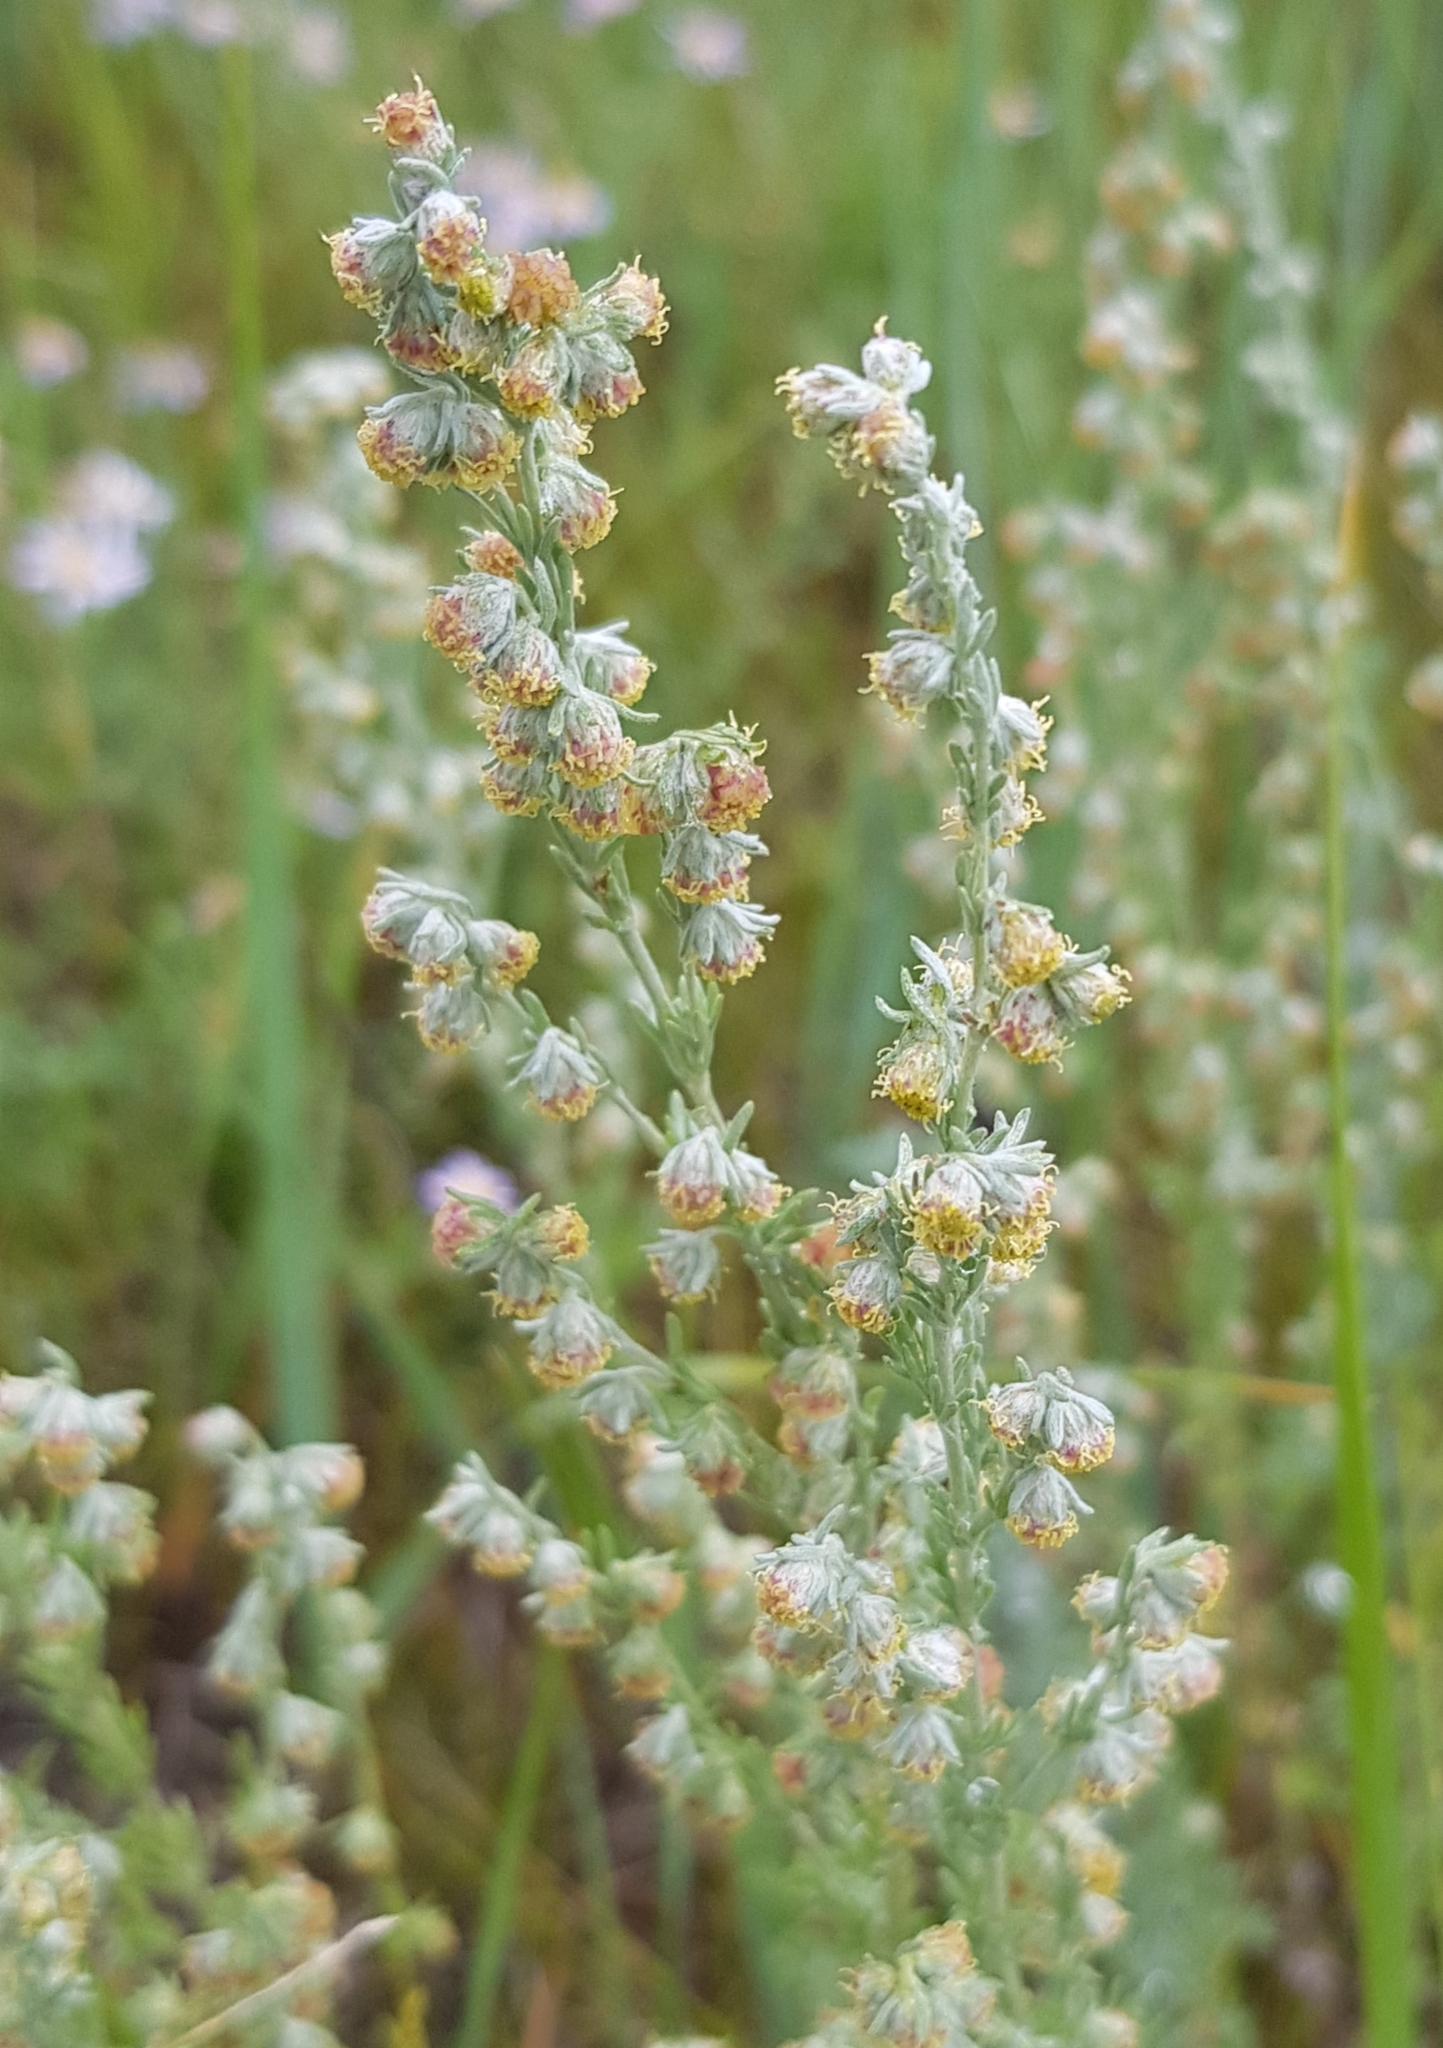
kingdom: Plantae
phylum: Tracheophyta
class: Magnoliopsida
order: Asterales
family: Asteraceae
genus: Artemisia
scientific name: Artemisia frigida
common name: Prairie sagewort
